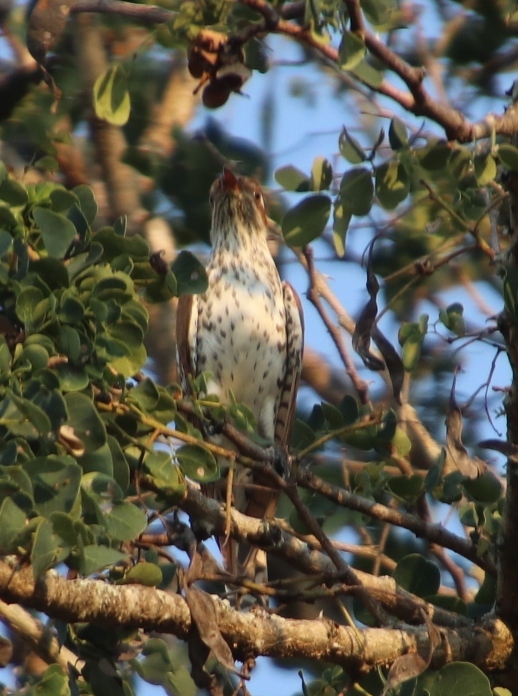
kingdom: Animalia
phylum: Chordata
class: Aves
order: Cuculiformes
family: Cuculidae
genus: Chrysococcyx
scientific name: Chrysococcyx caprius
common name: Diederik cuckoo
